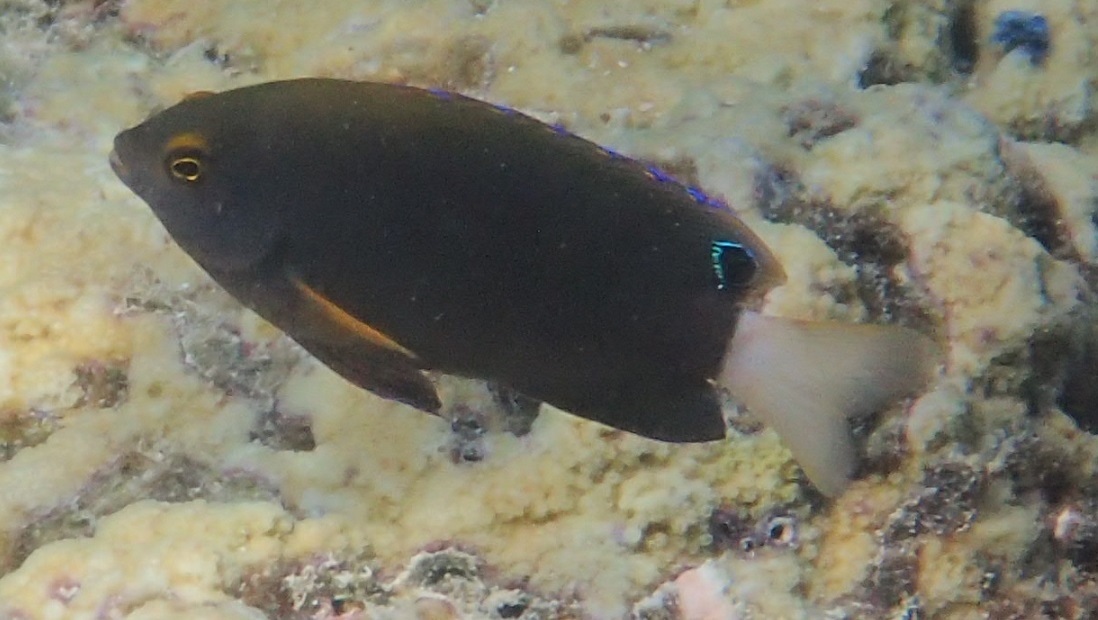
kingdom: Animalia
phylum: Chordata
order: Perciformes
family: Pomacentridae
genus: Pomacentrus
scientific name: Pomacentrus chrysurus
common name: White-tail damsel
